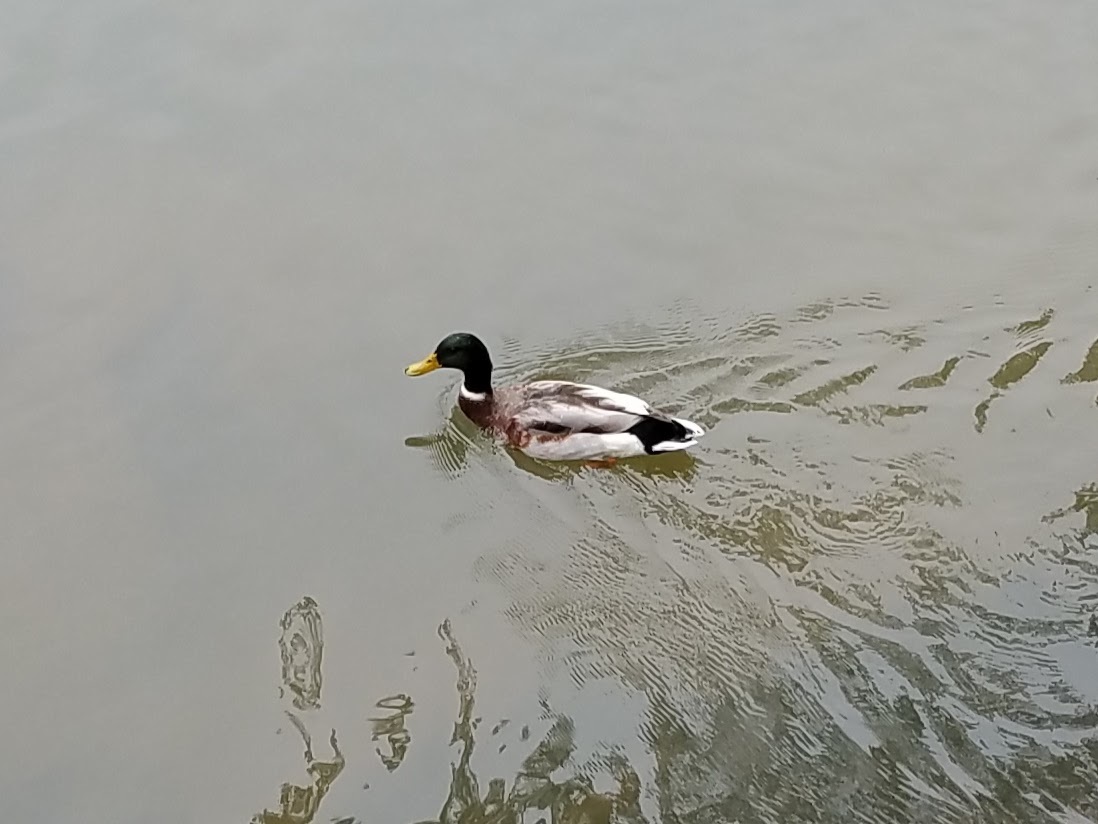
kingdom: Animalia
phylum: Chordata
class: Aves
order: Anseriformes
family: Anatidae
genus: Anas
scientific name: Anas platyrhynchos
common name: Mallard
